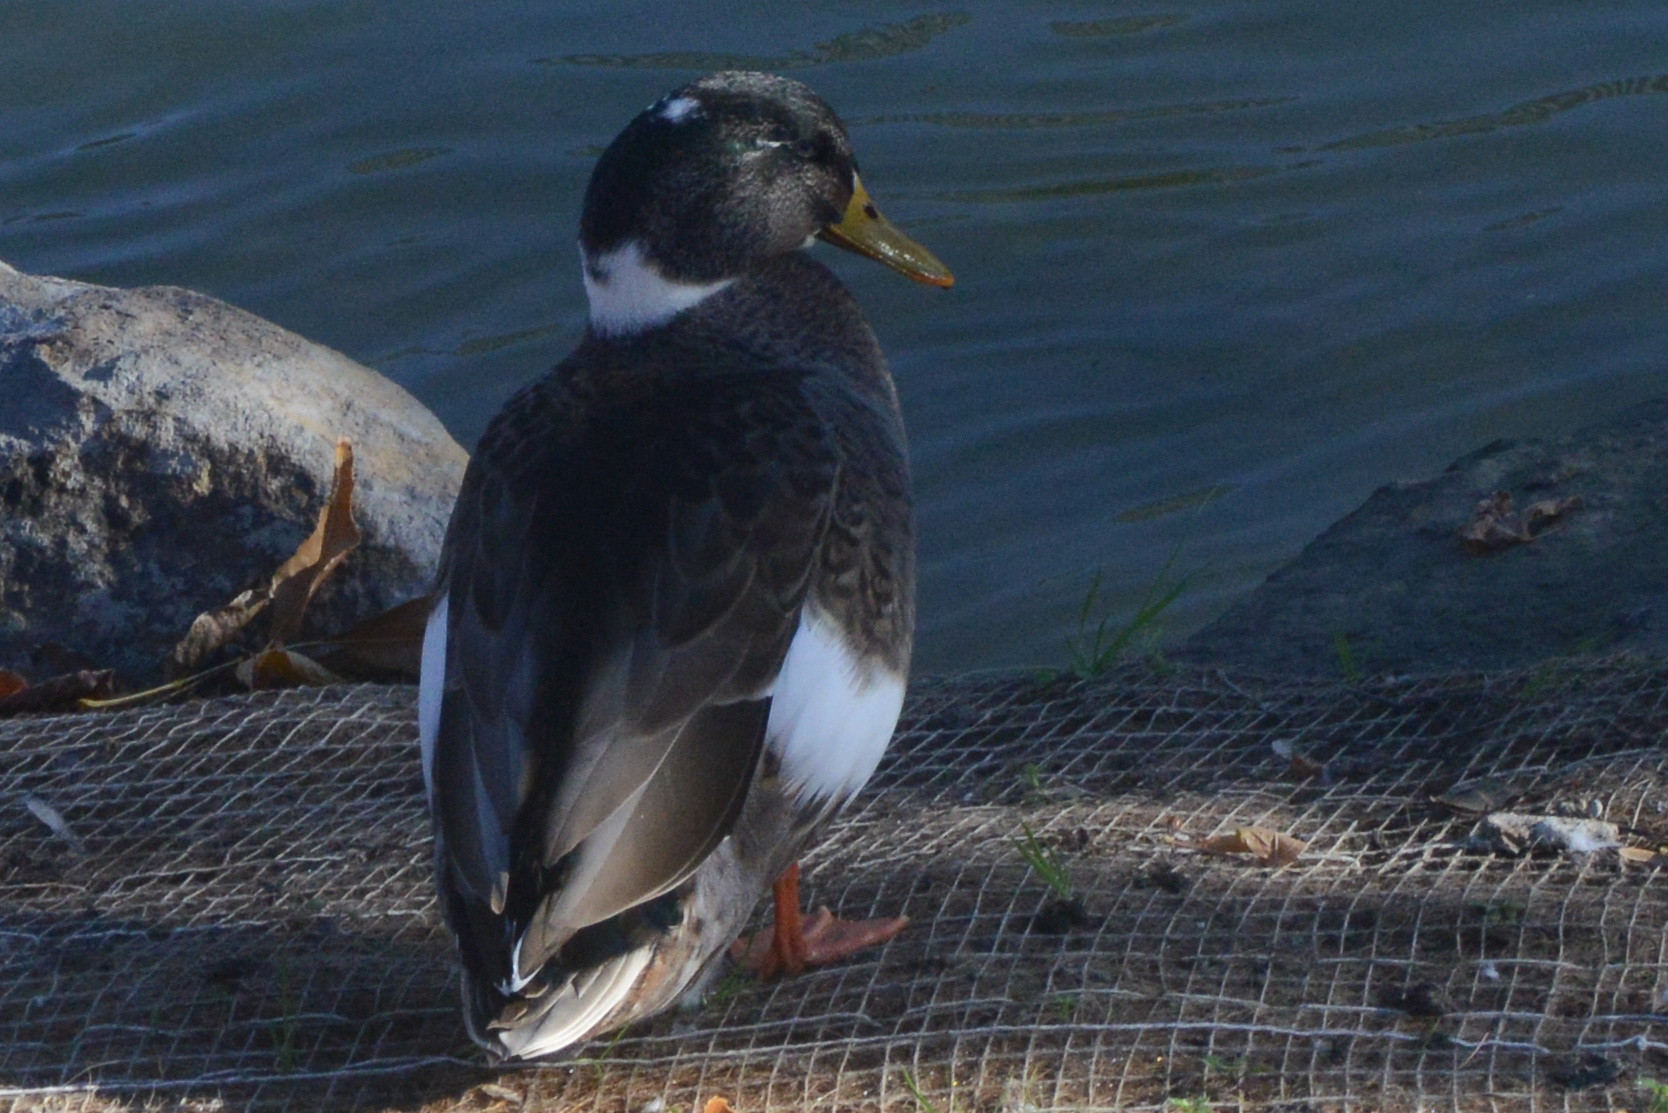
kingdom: Animalia
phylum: Chordata
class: Aves
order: Anseriformes
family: Anatidae
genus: Anas
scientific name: Anas platyrhynchos
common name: Mallard
